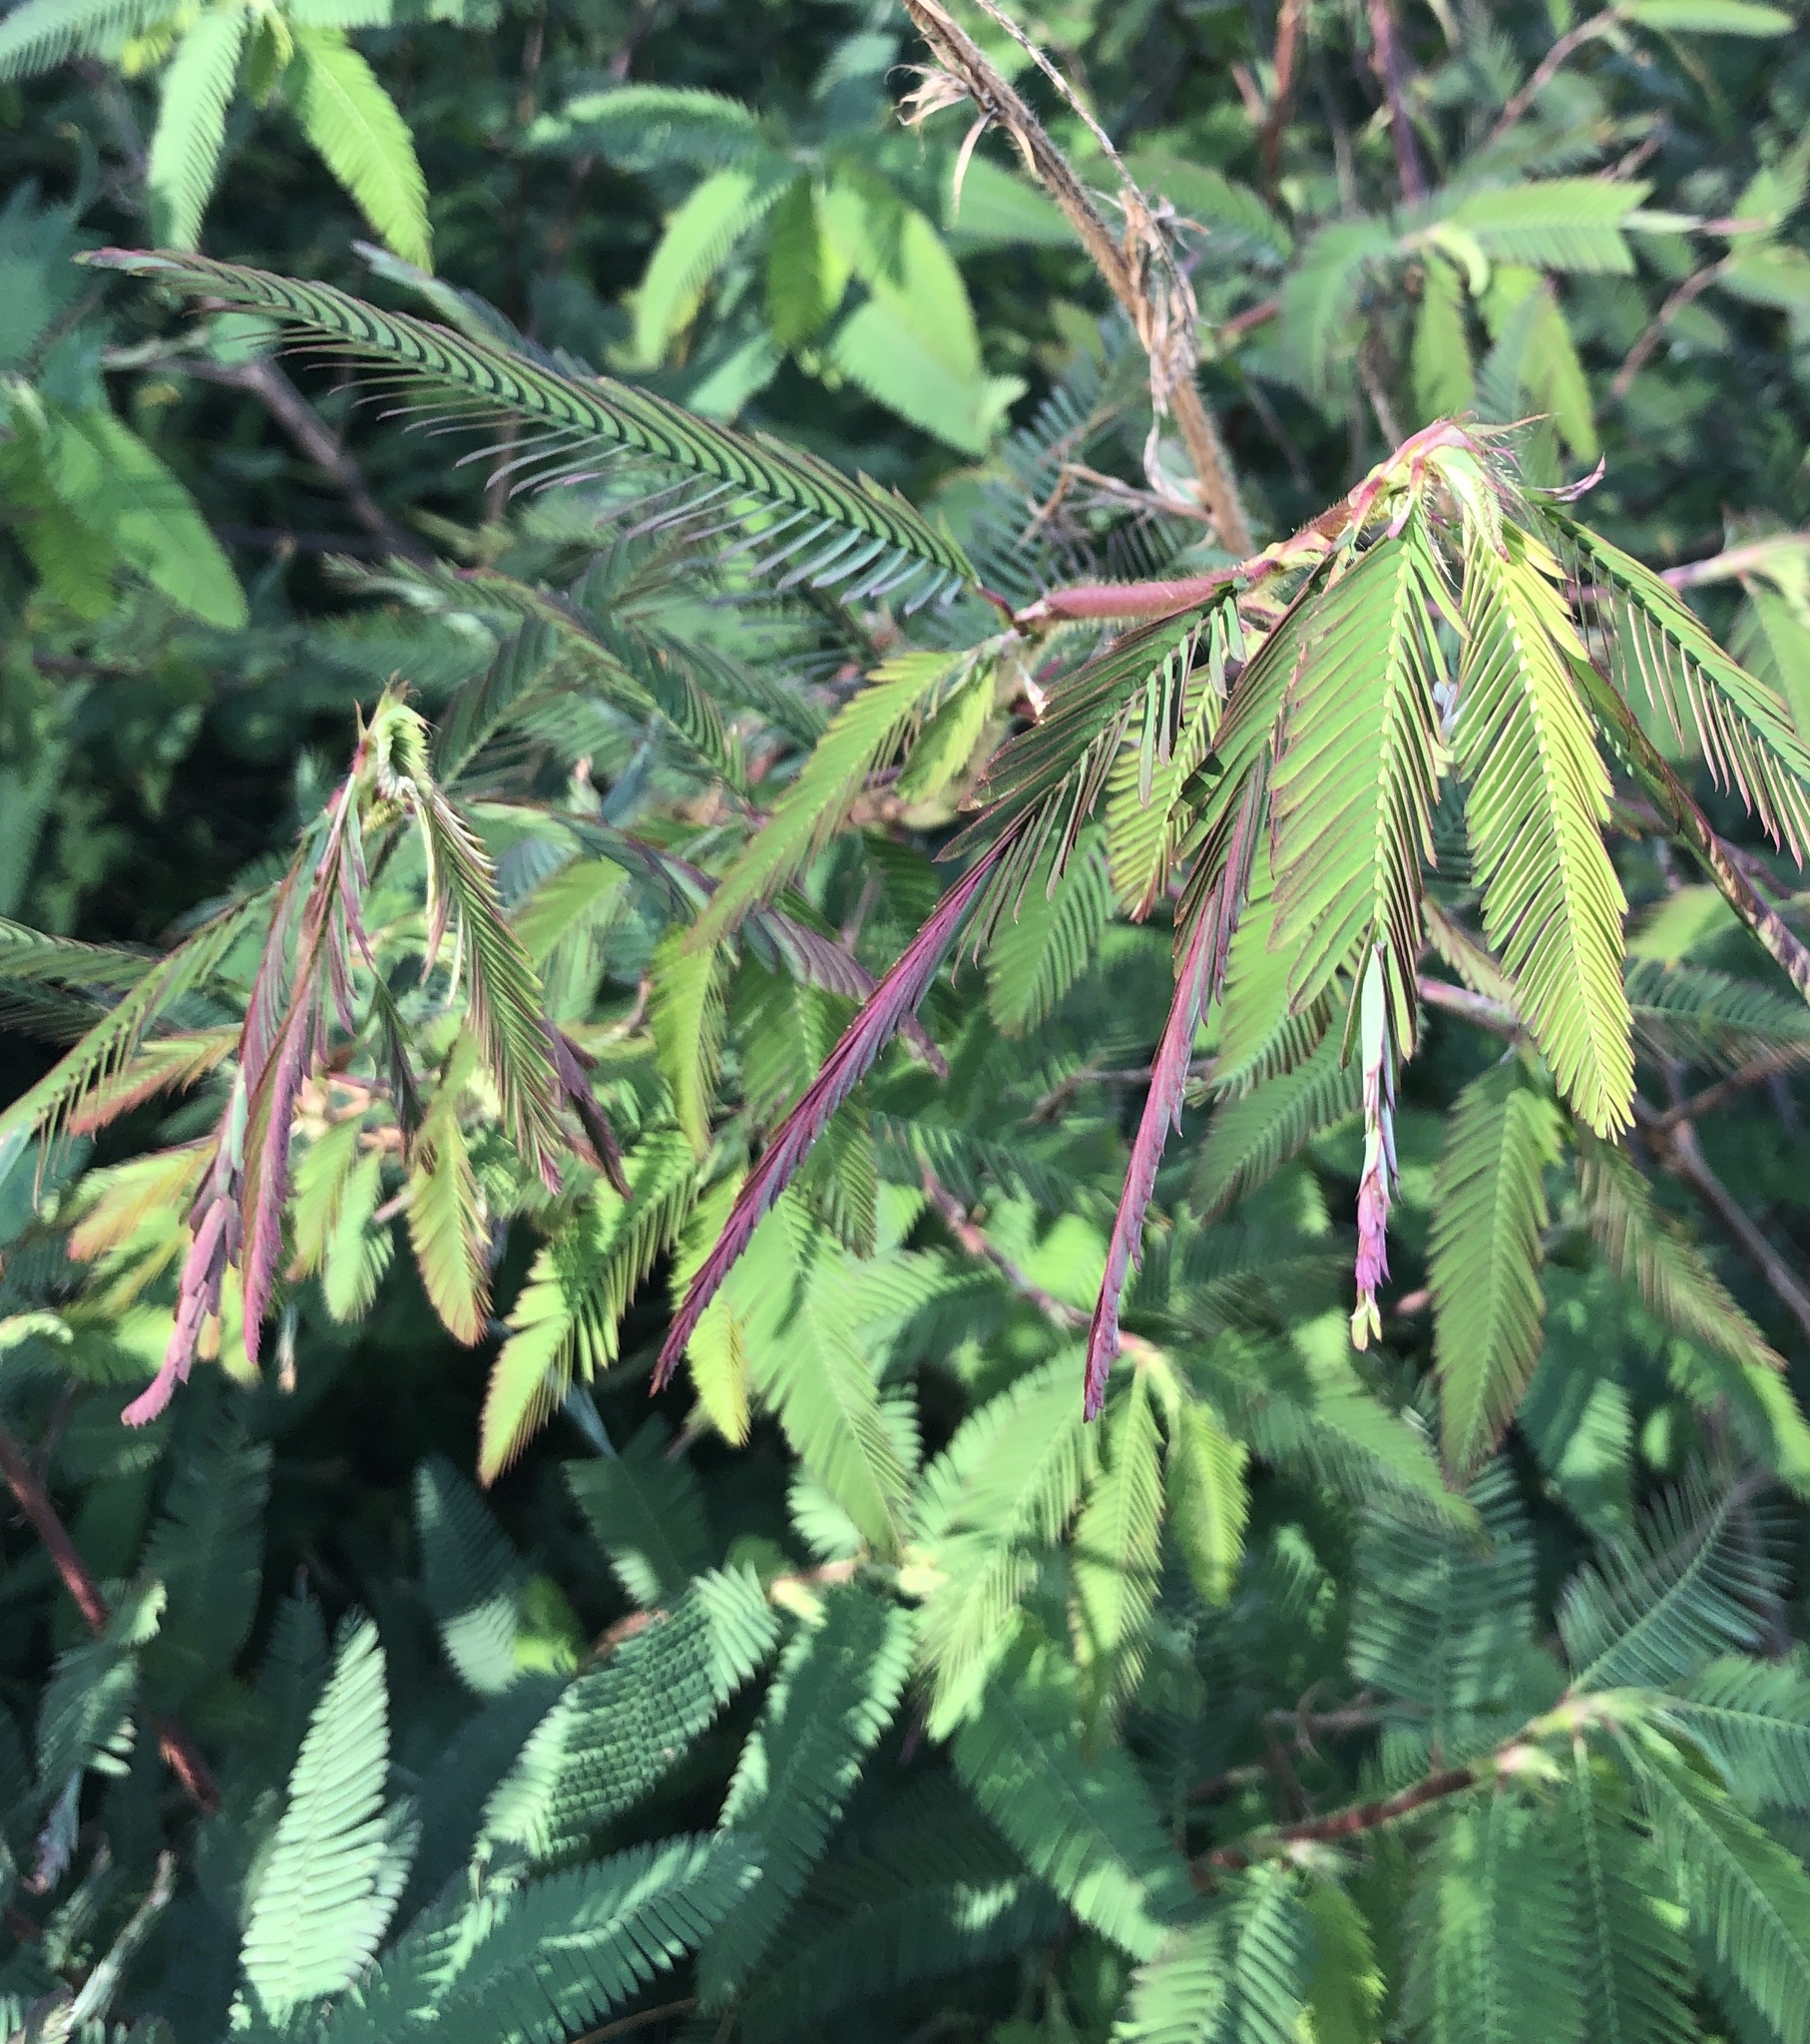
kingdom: Plantae
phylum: Tracheophyta
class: Magnoliopsida
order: Fabales
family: Fabaceae
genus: Aeschynomene
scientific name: Aeschynomene americana
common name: Joint-vetch
